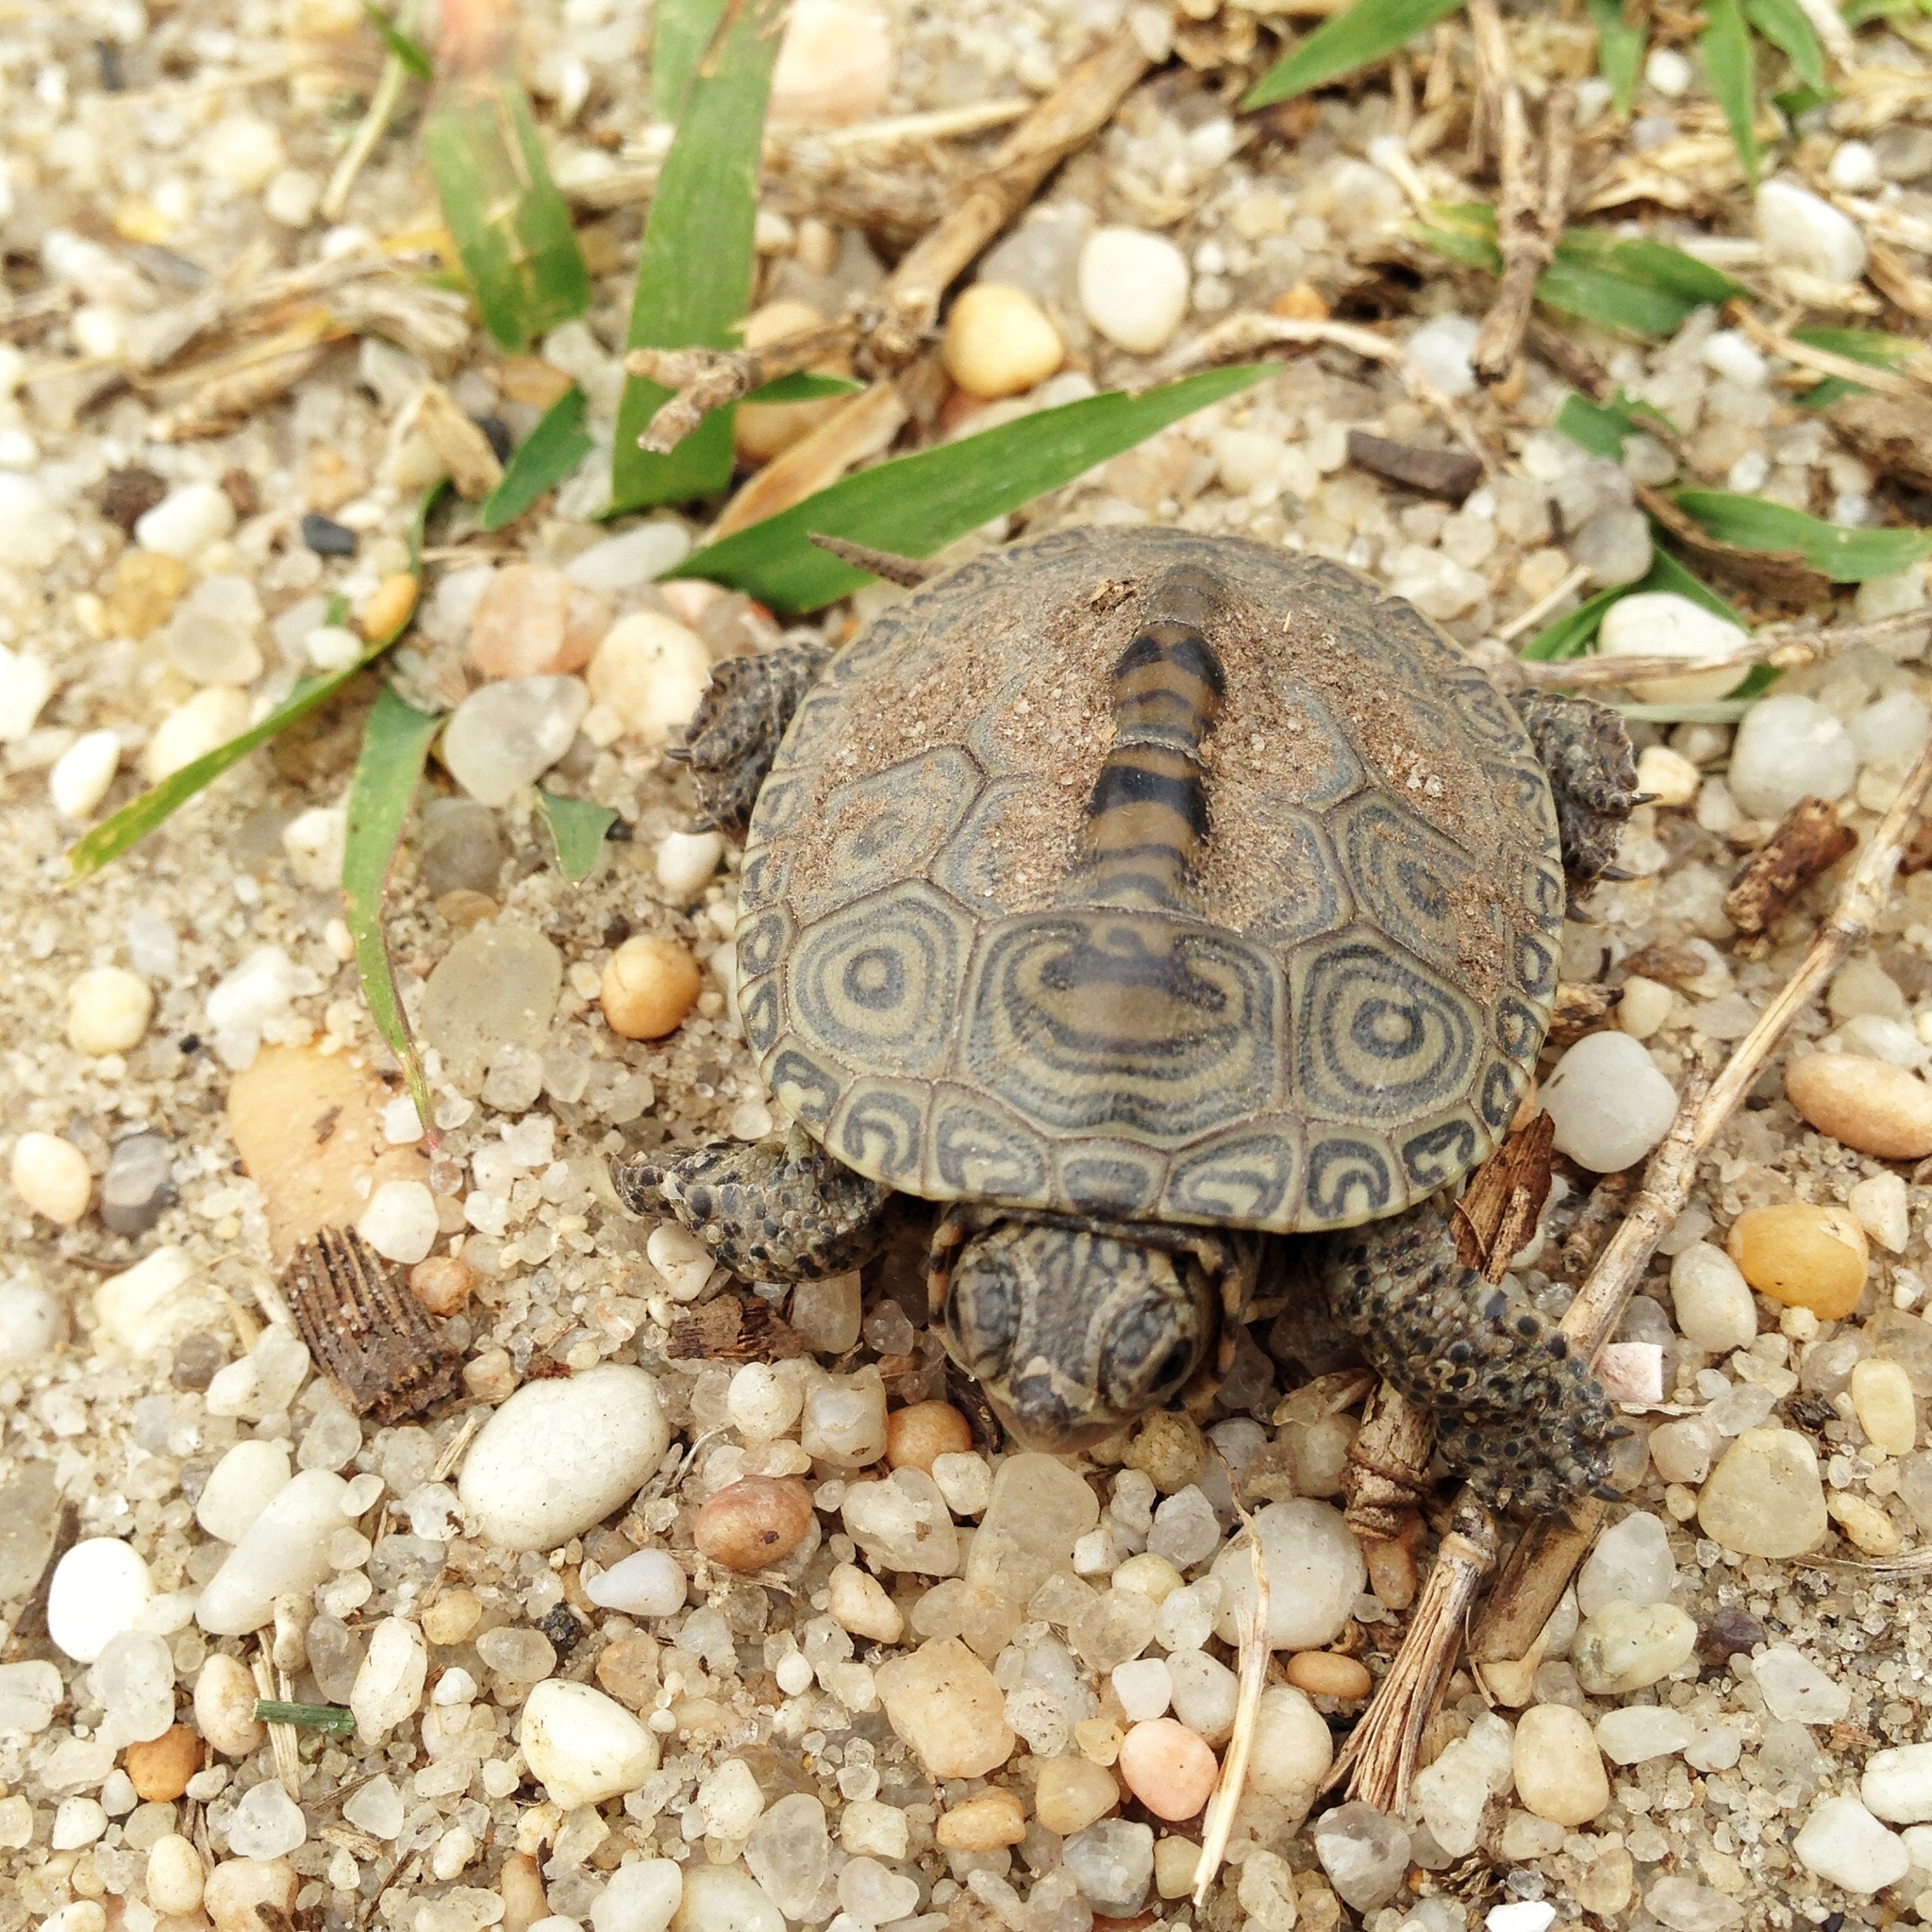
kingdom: Animalia
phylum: Chordata
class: Testudines
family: Emydidae
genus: Malaclemys
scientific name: Malaclemys terrapin
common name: Diamondback terrapin
